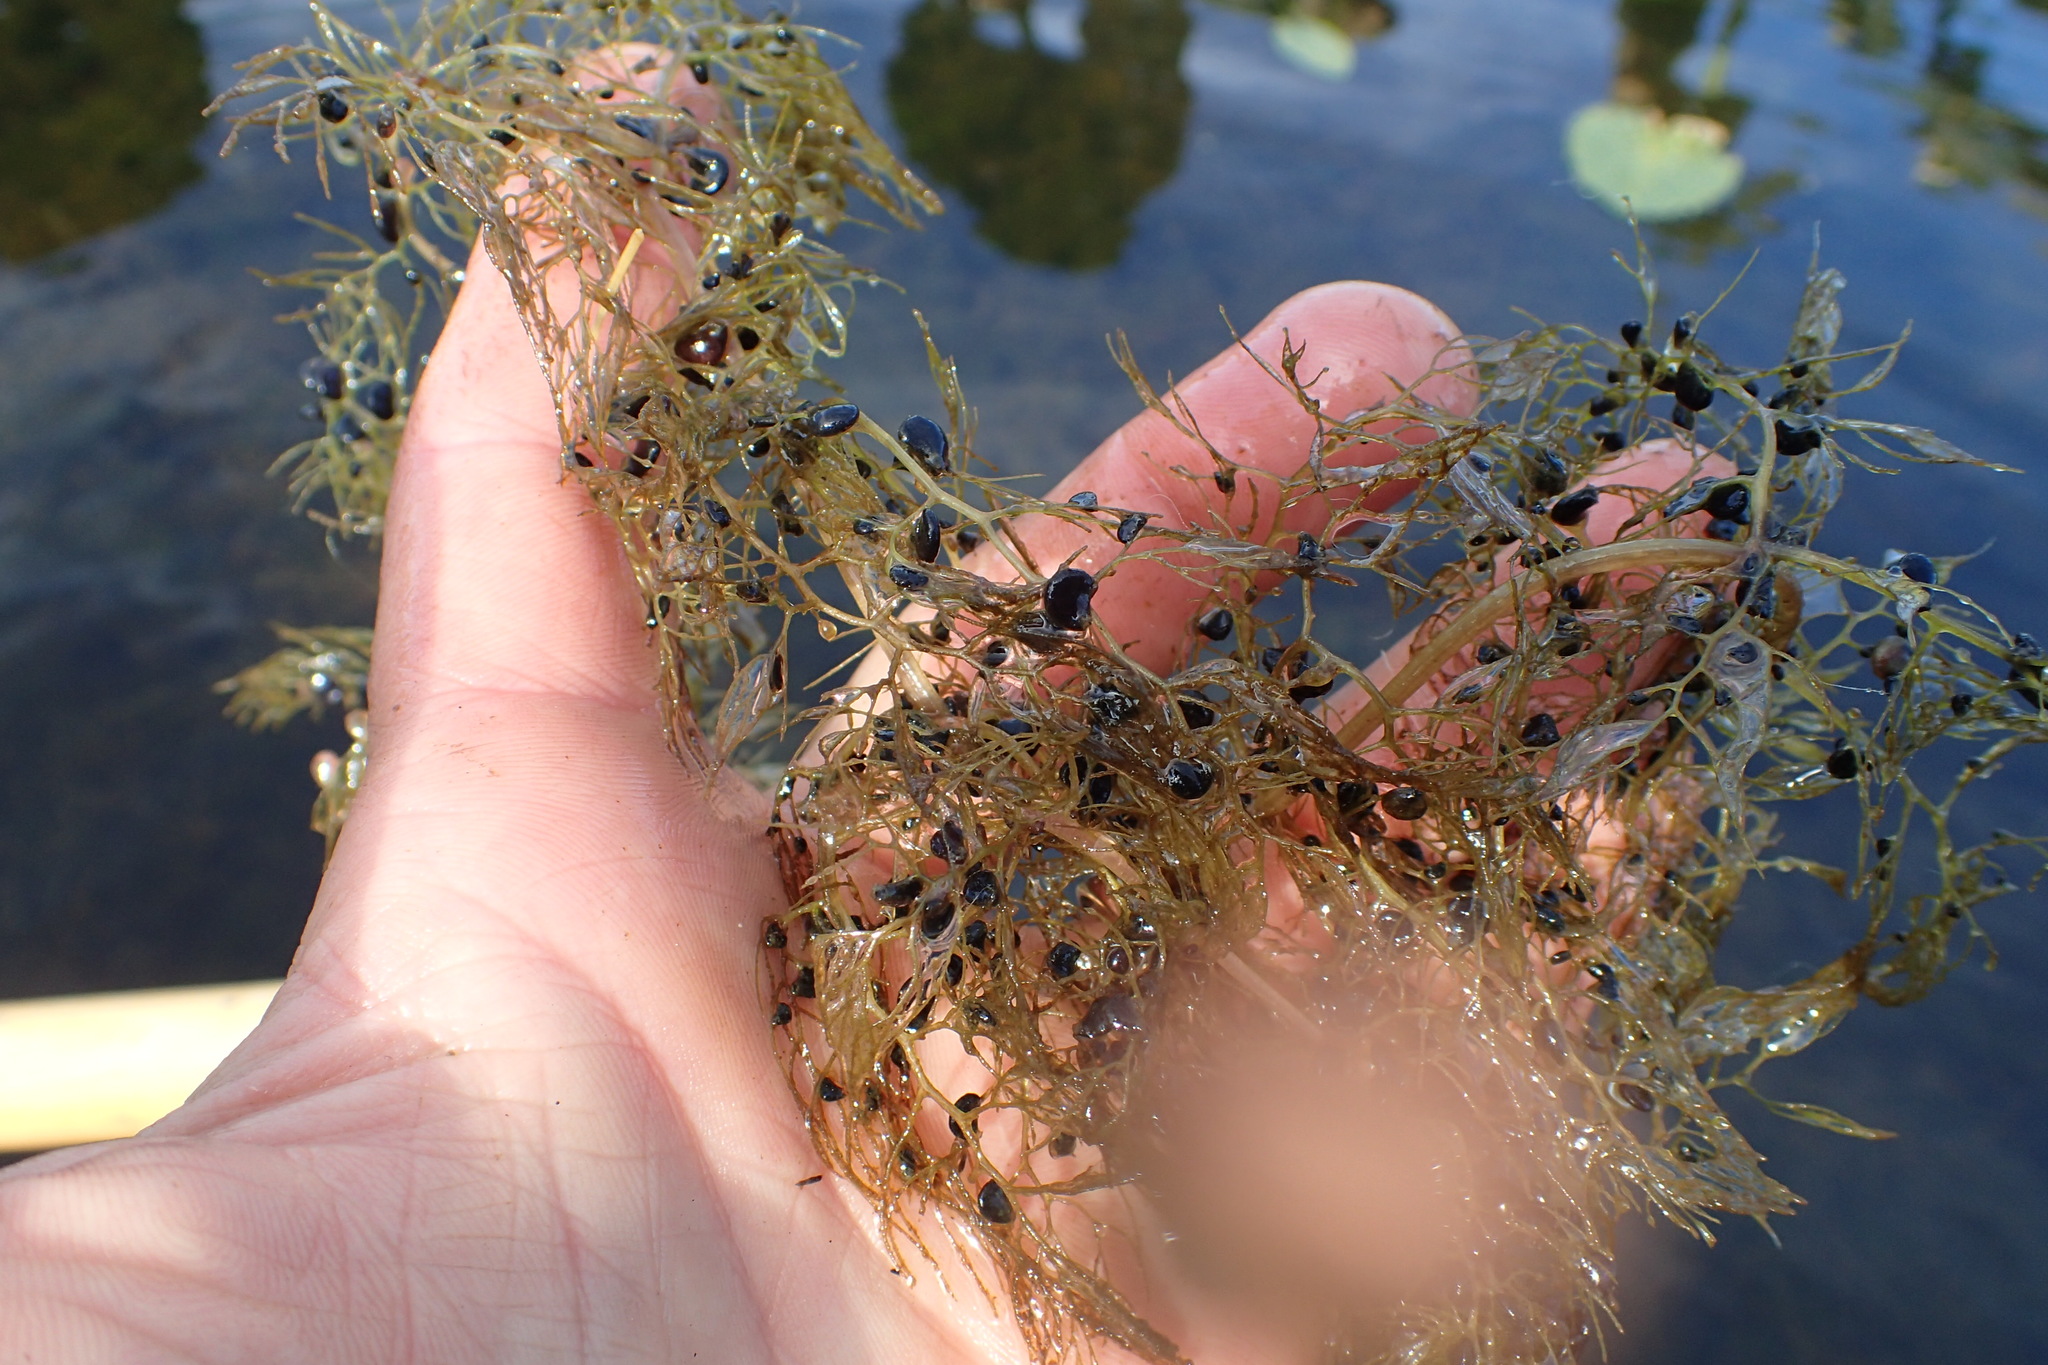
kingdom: Plantae
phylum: Tracheophyta
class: Magnoliopsida
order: Lamiales
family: Lentibulariaceae
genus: Utricularia
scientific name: Utricularia macrorhiza
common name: Common bladderwort
